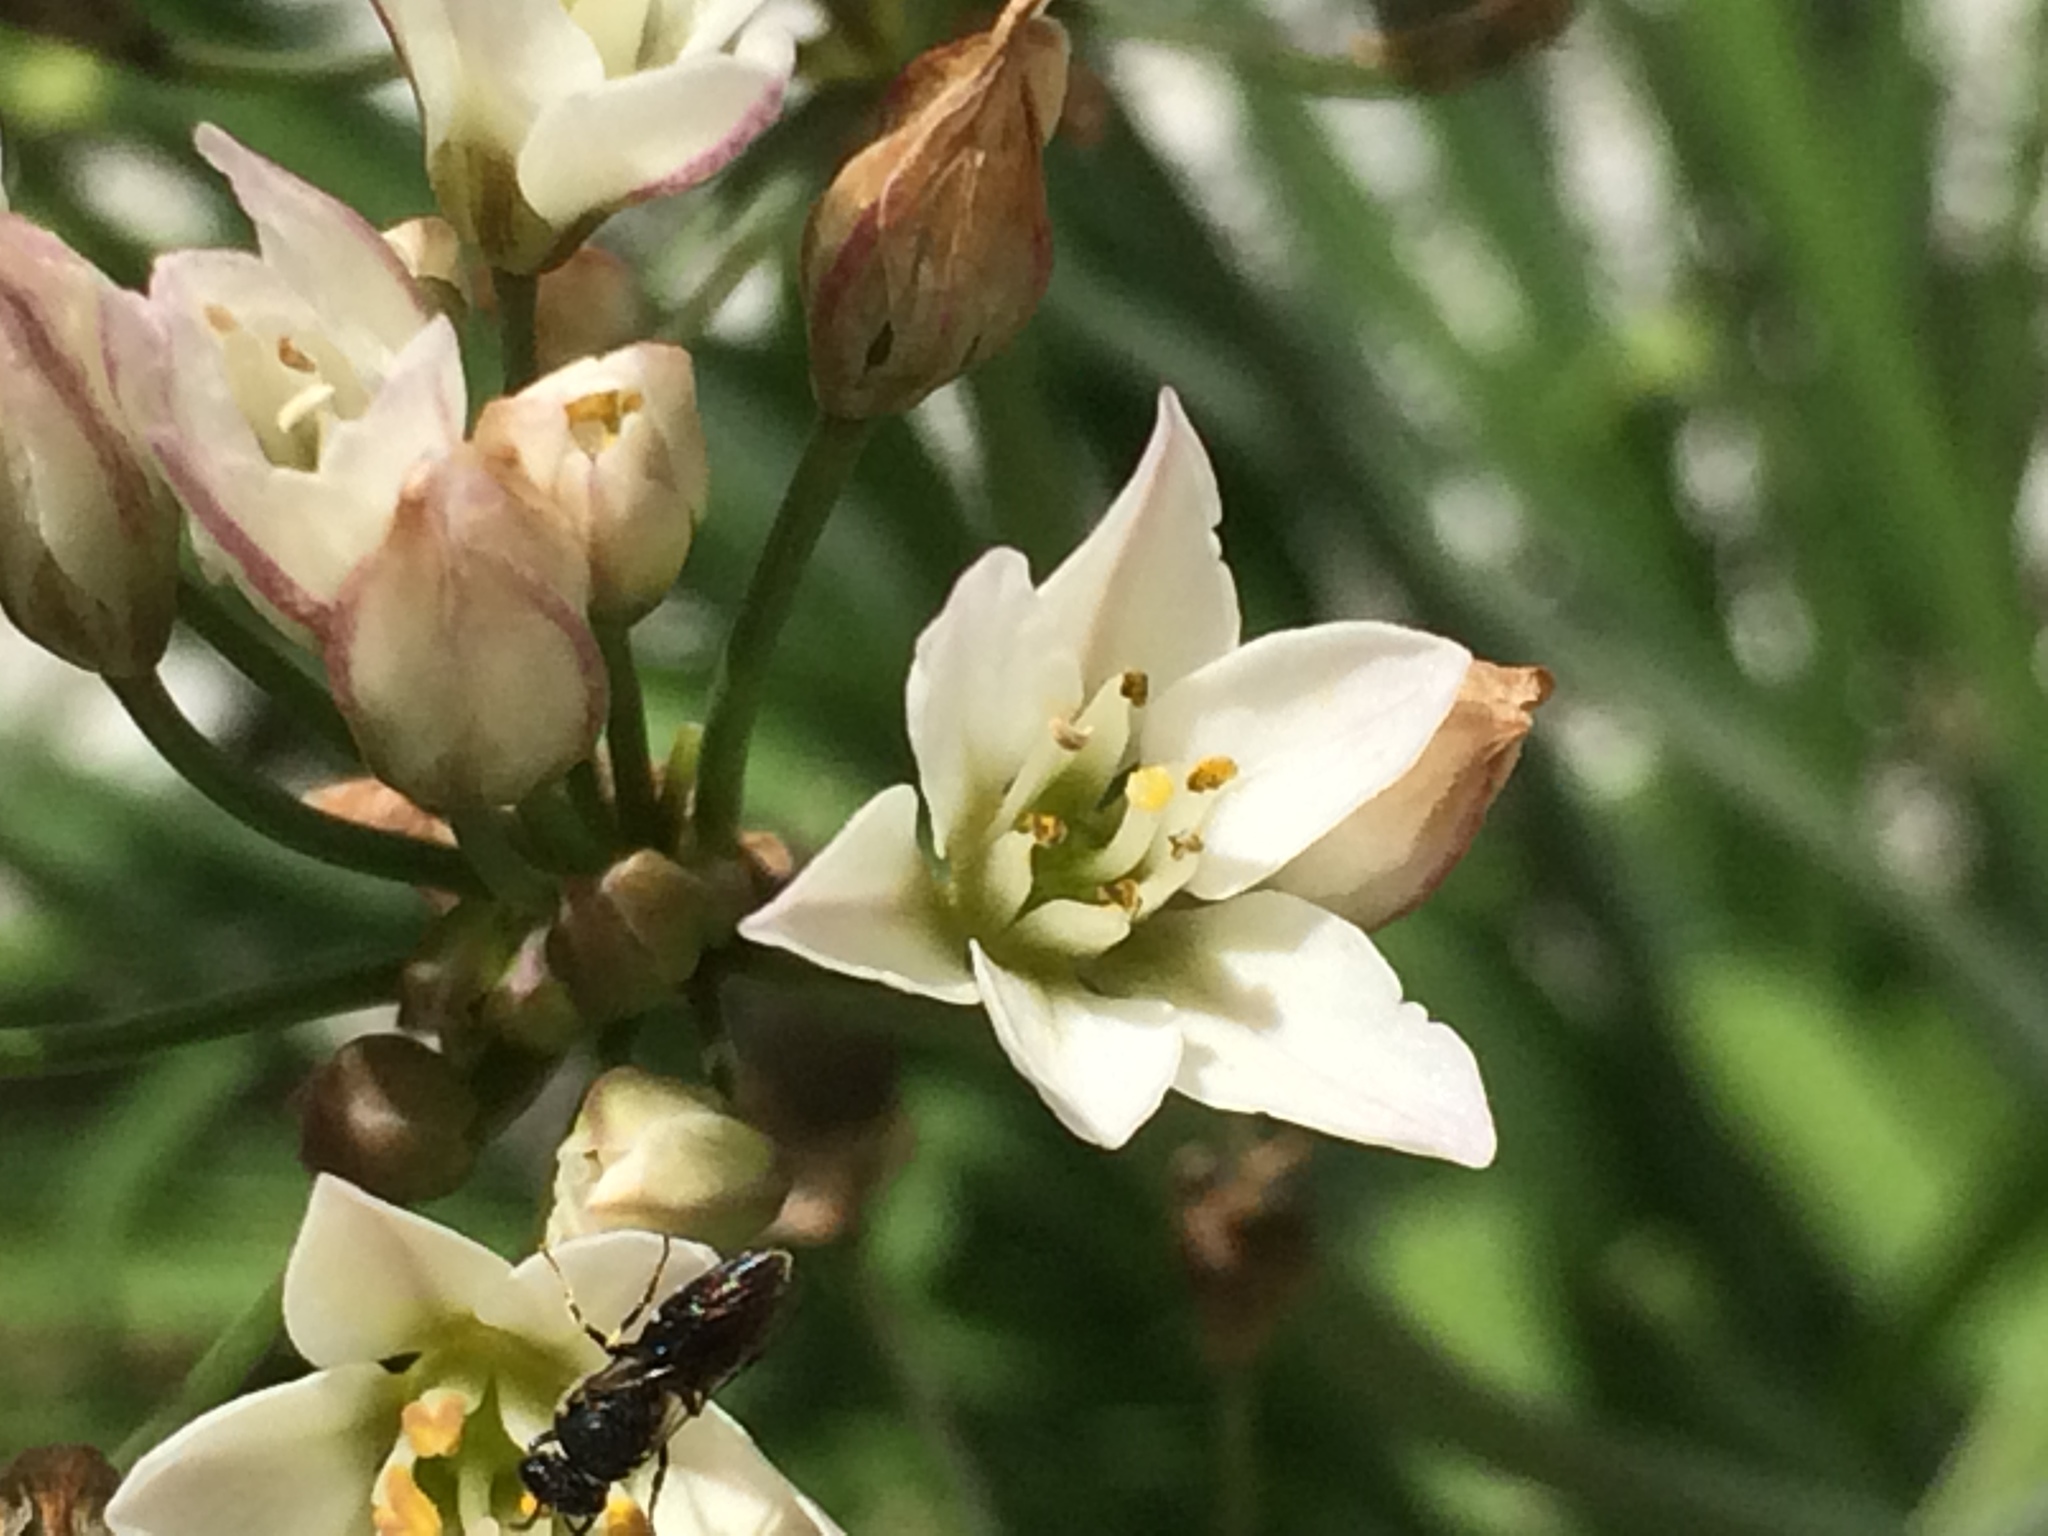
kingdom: Plantae
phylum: Tracheophyta
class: Liliopsida
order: Asparagales
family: Amaryllidaceae
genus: Nothoscordum
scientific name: Nothoscordum gracile
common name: Slender false garlic
